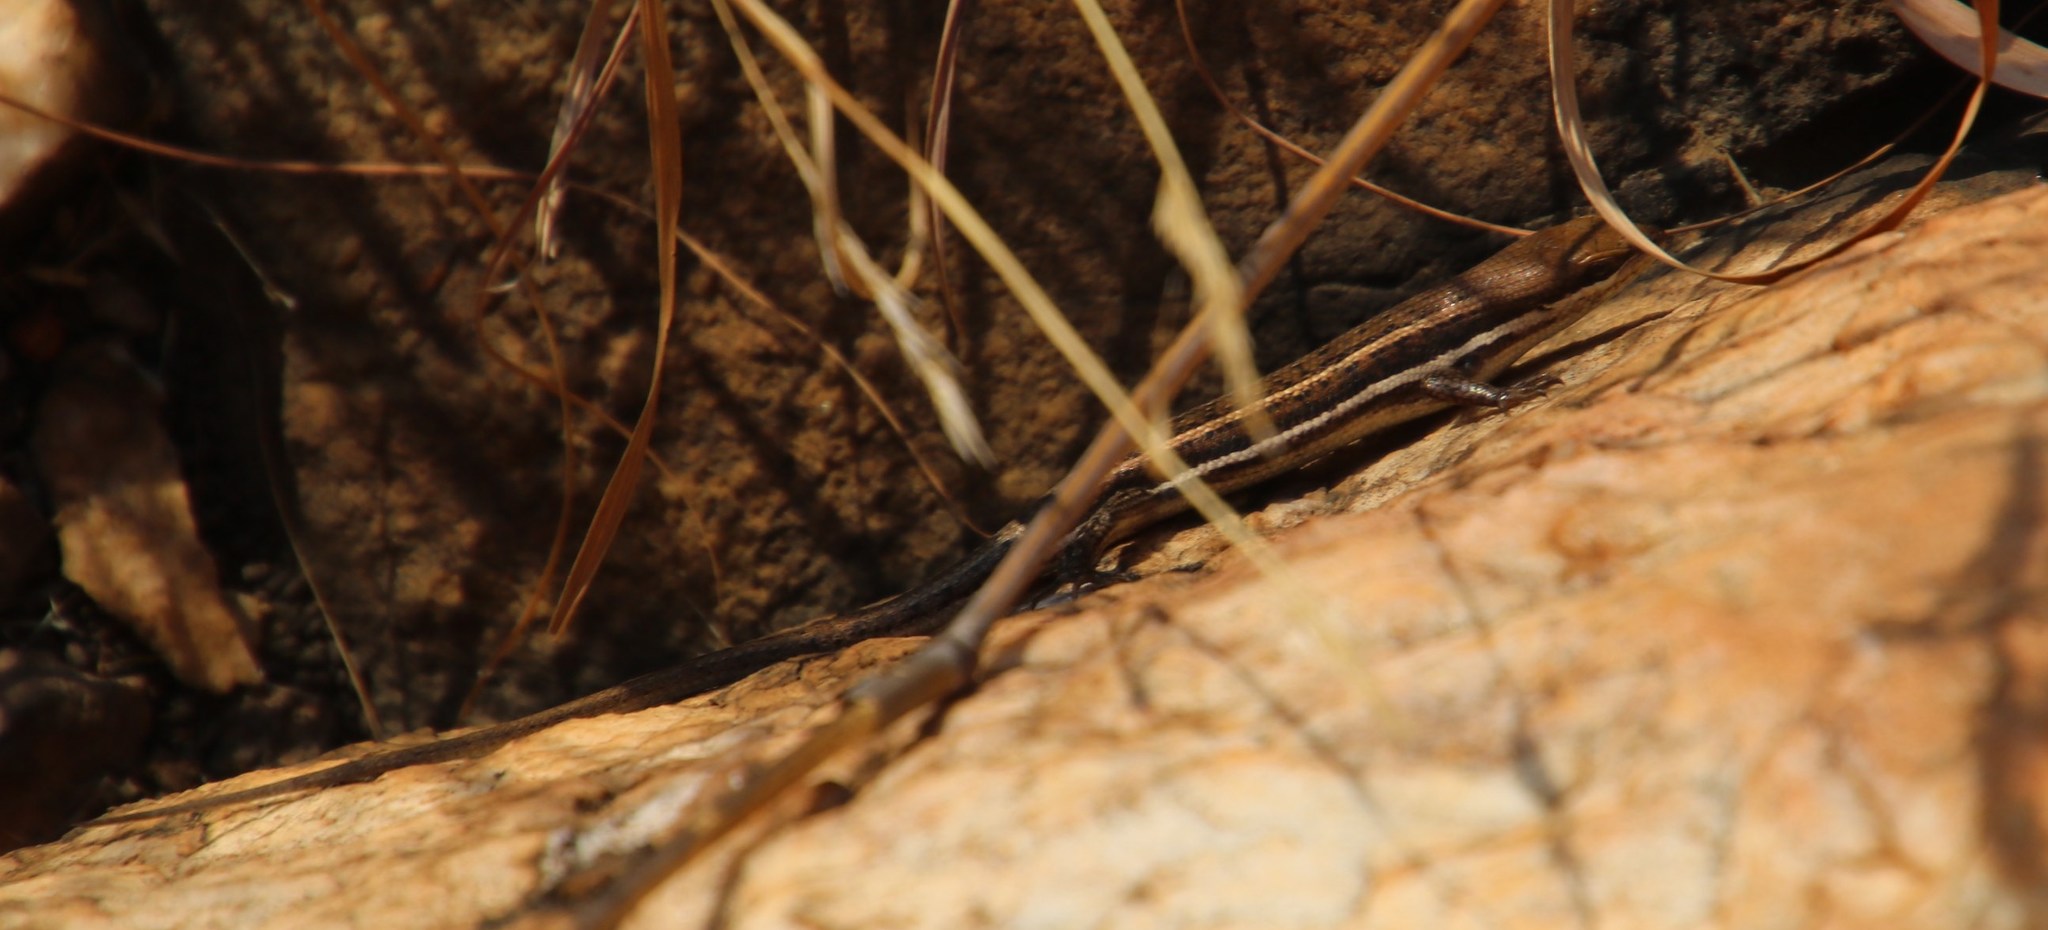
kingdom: Animalia
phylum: Chordata
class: Squamata
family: Scincidae
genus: Trachylepis
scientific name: Trachylepis varia
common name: Eastern variable skink
